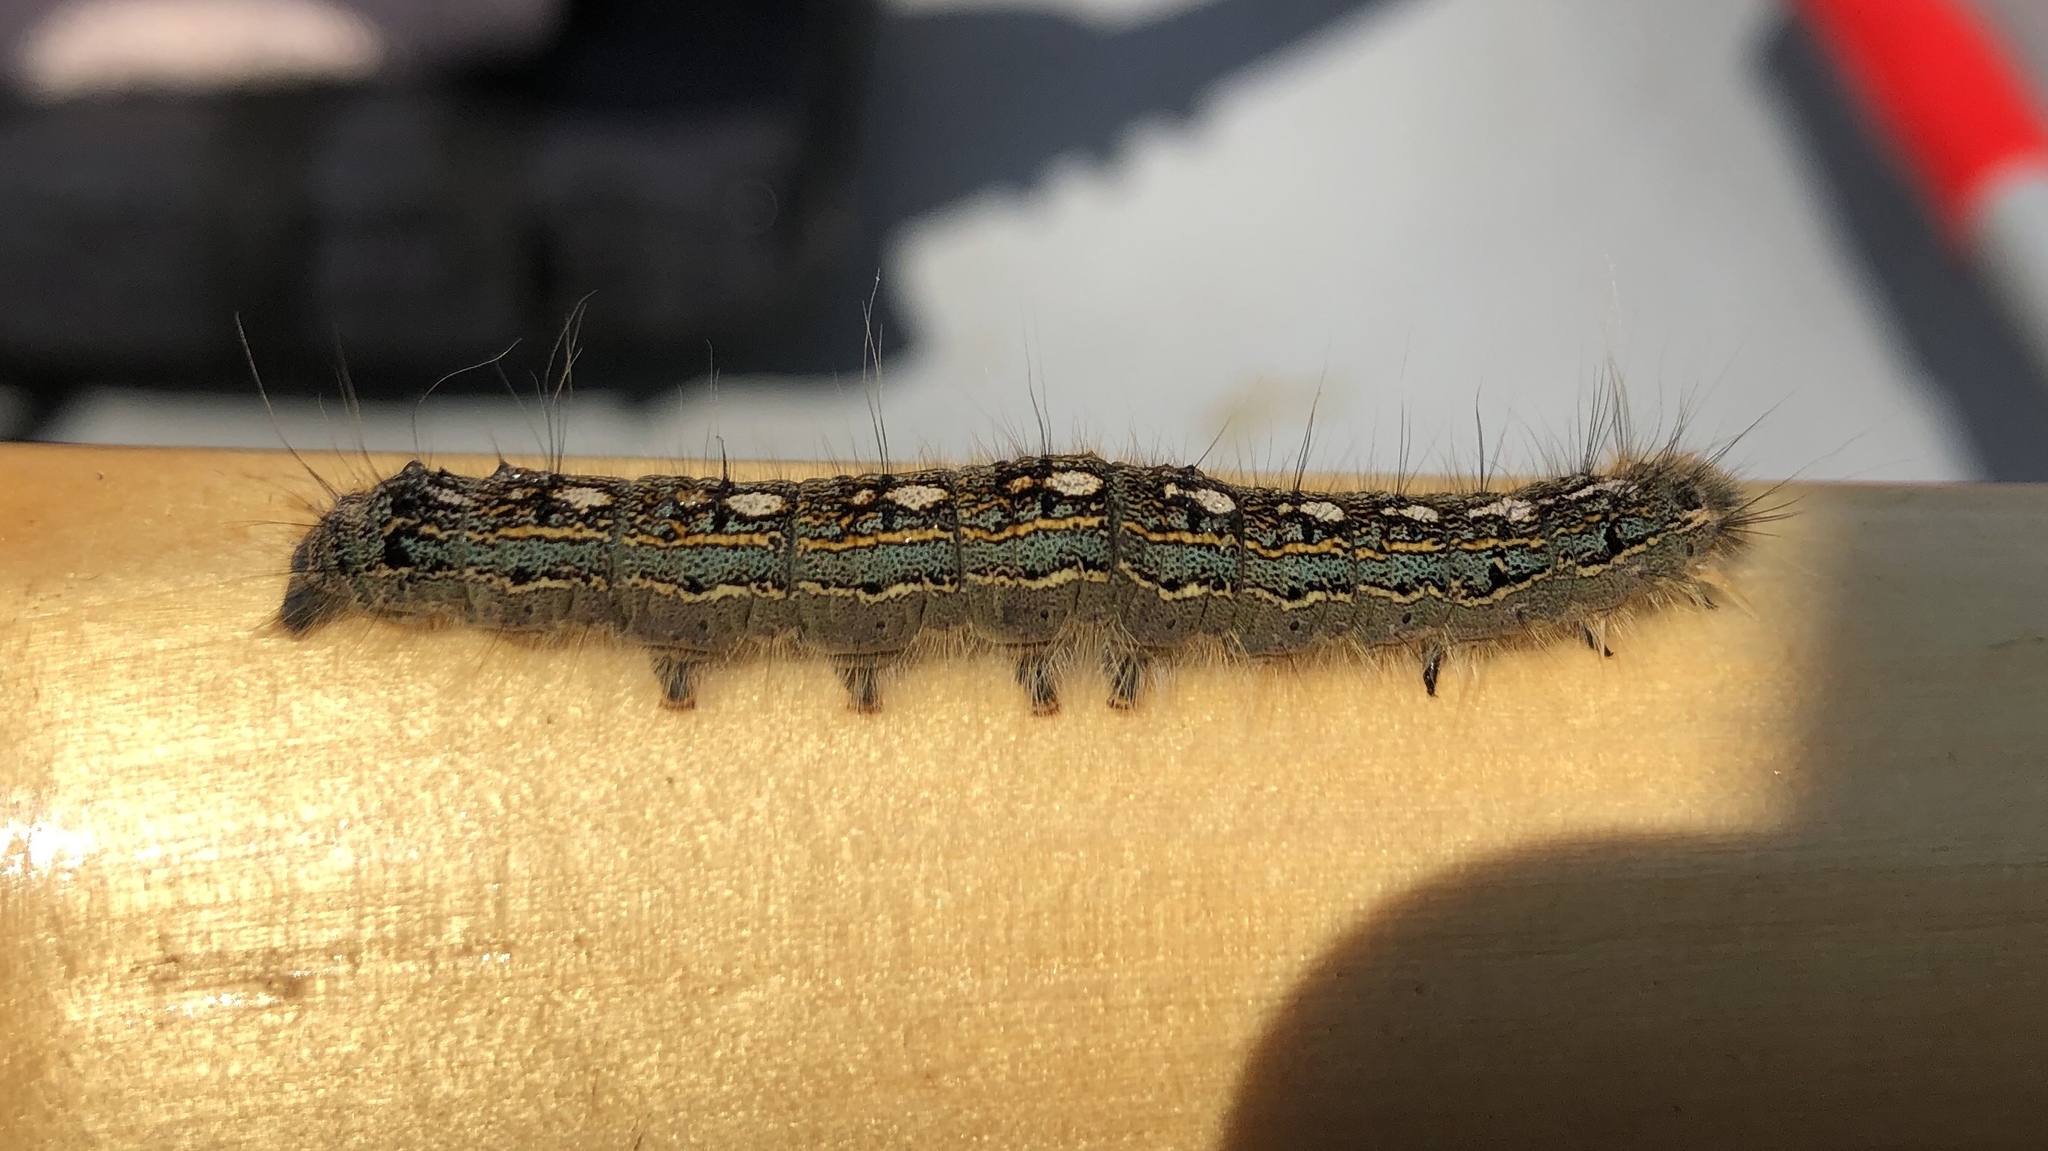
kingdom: Animalia
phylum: Arthropoda
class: Insecta
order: Lepidoptera
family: Lasiocampidae
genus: Malacosoma
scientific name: Malacosoma disstria
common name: Forest tent caterpillar
